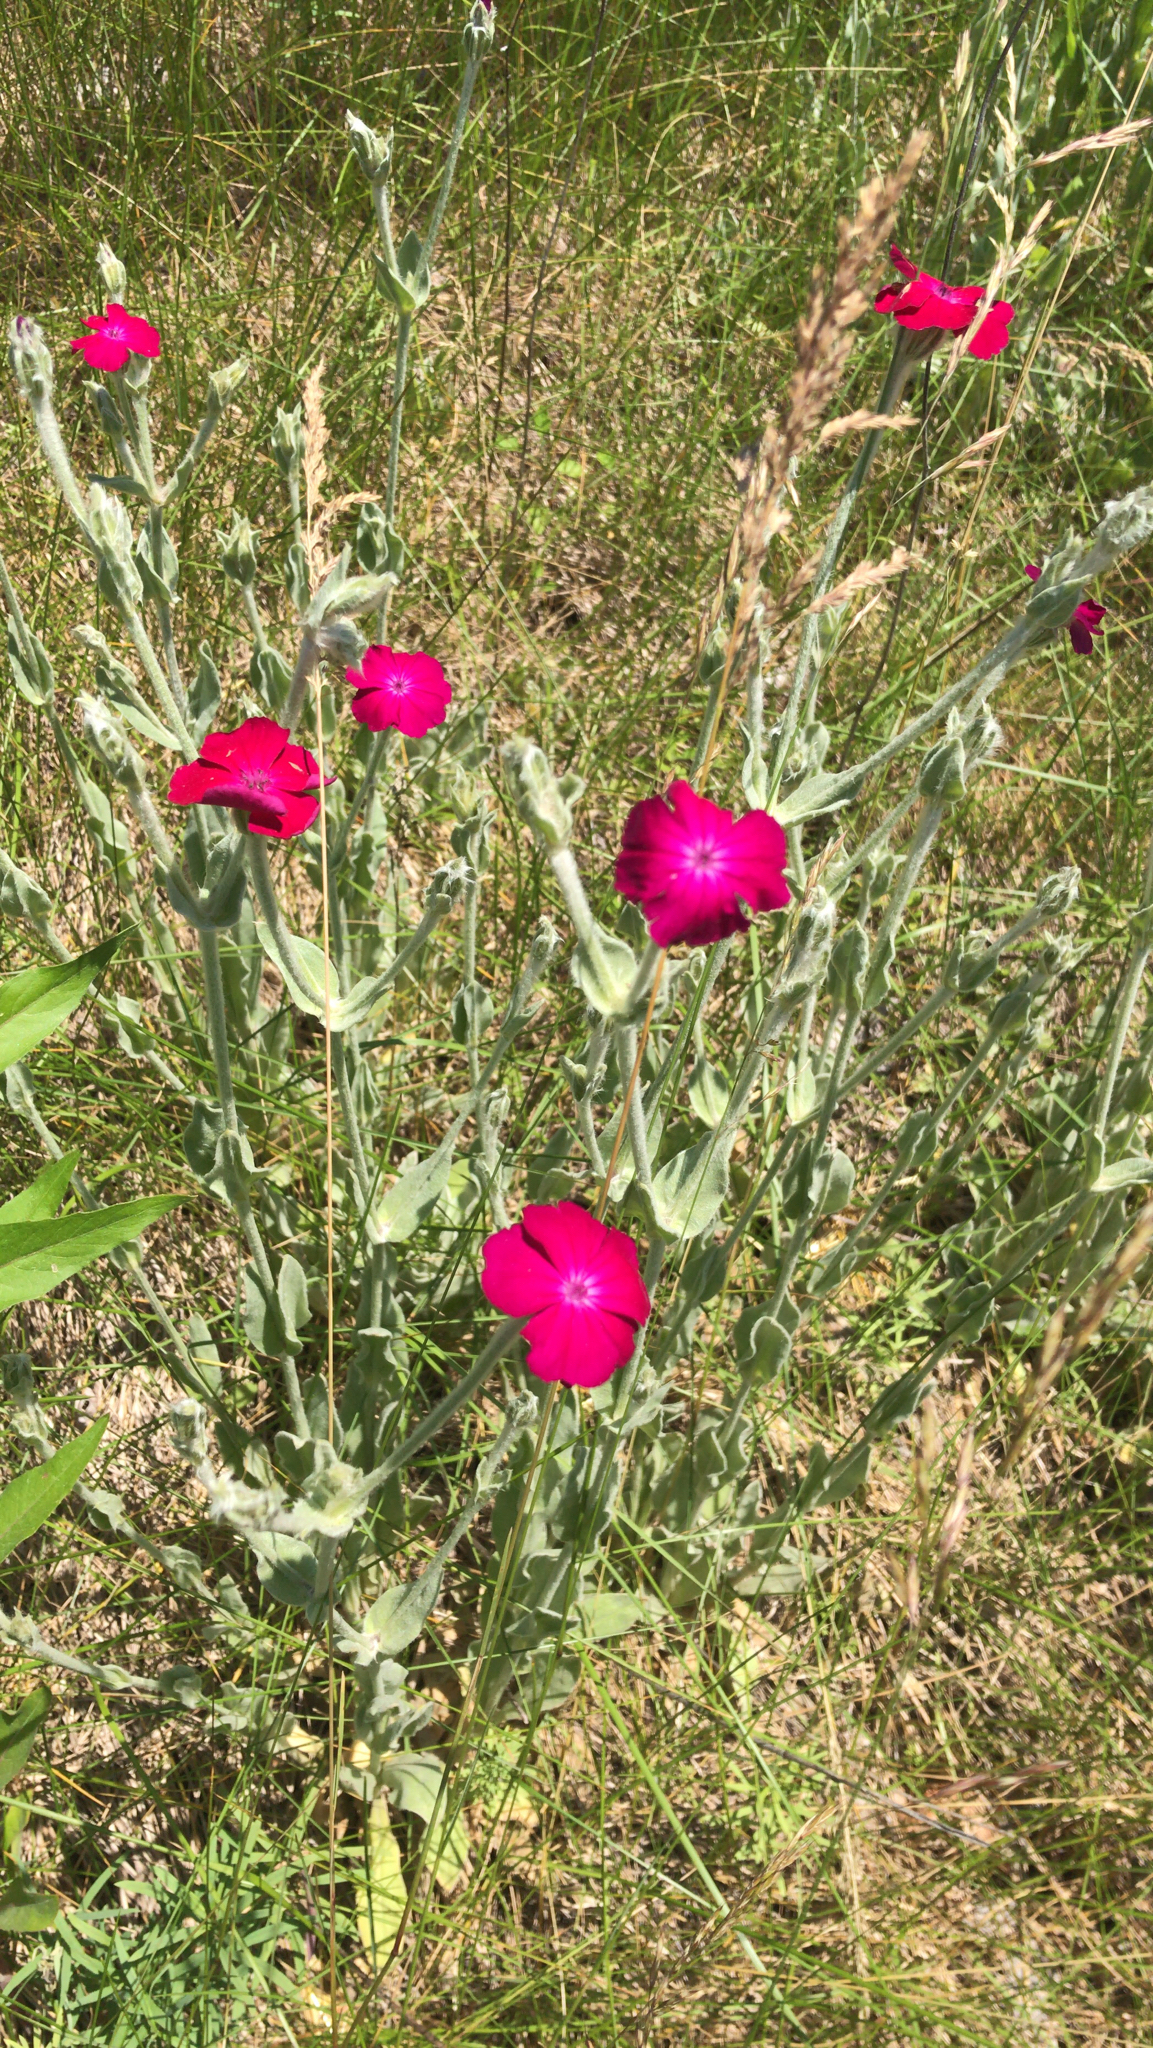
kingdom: Plantae
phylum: Tracheophyta
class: Magnoliopsida
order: Caryophyllales
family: Caryophyllaceae
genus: Silene
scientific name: Silene coronaria
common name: Rose campion
